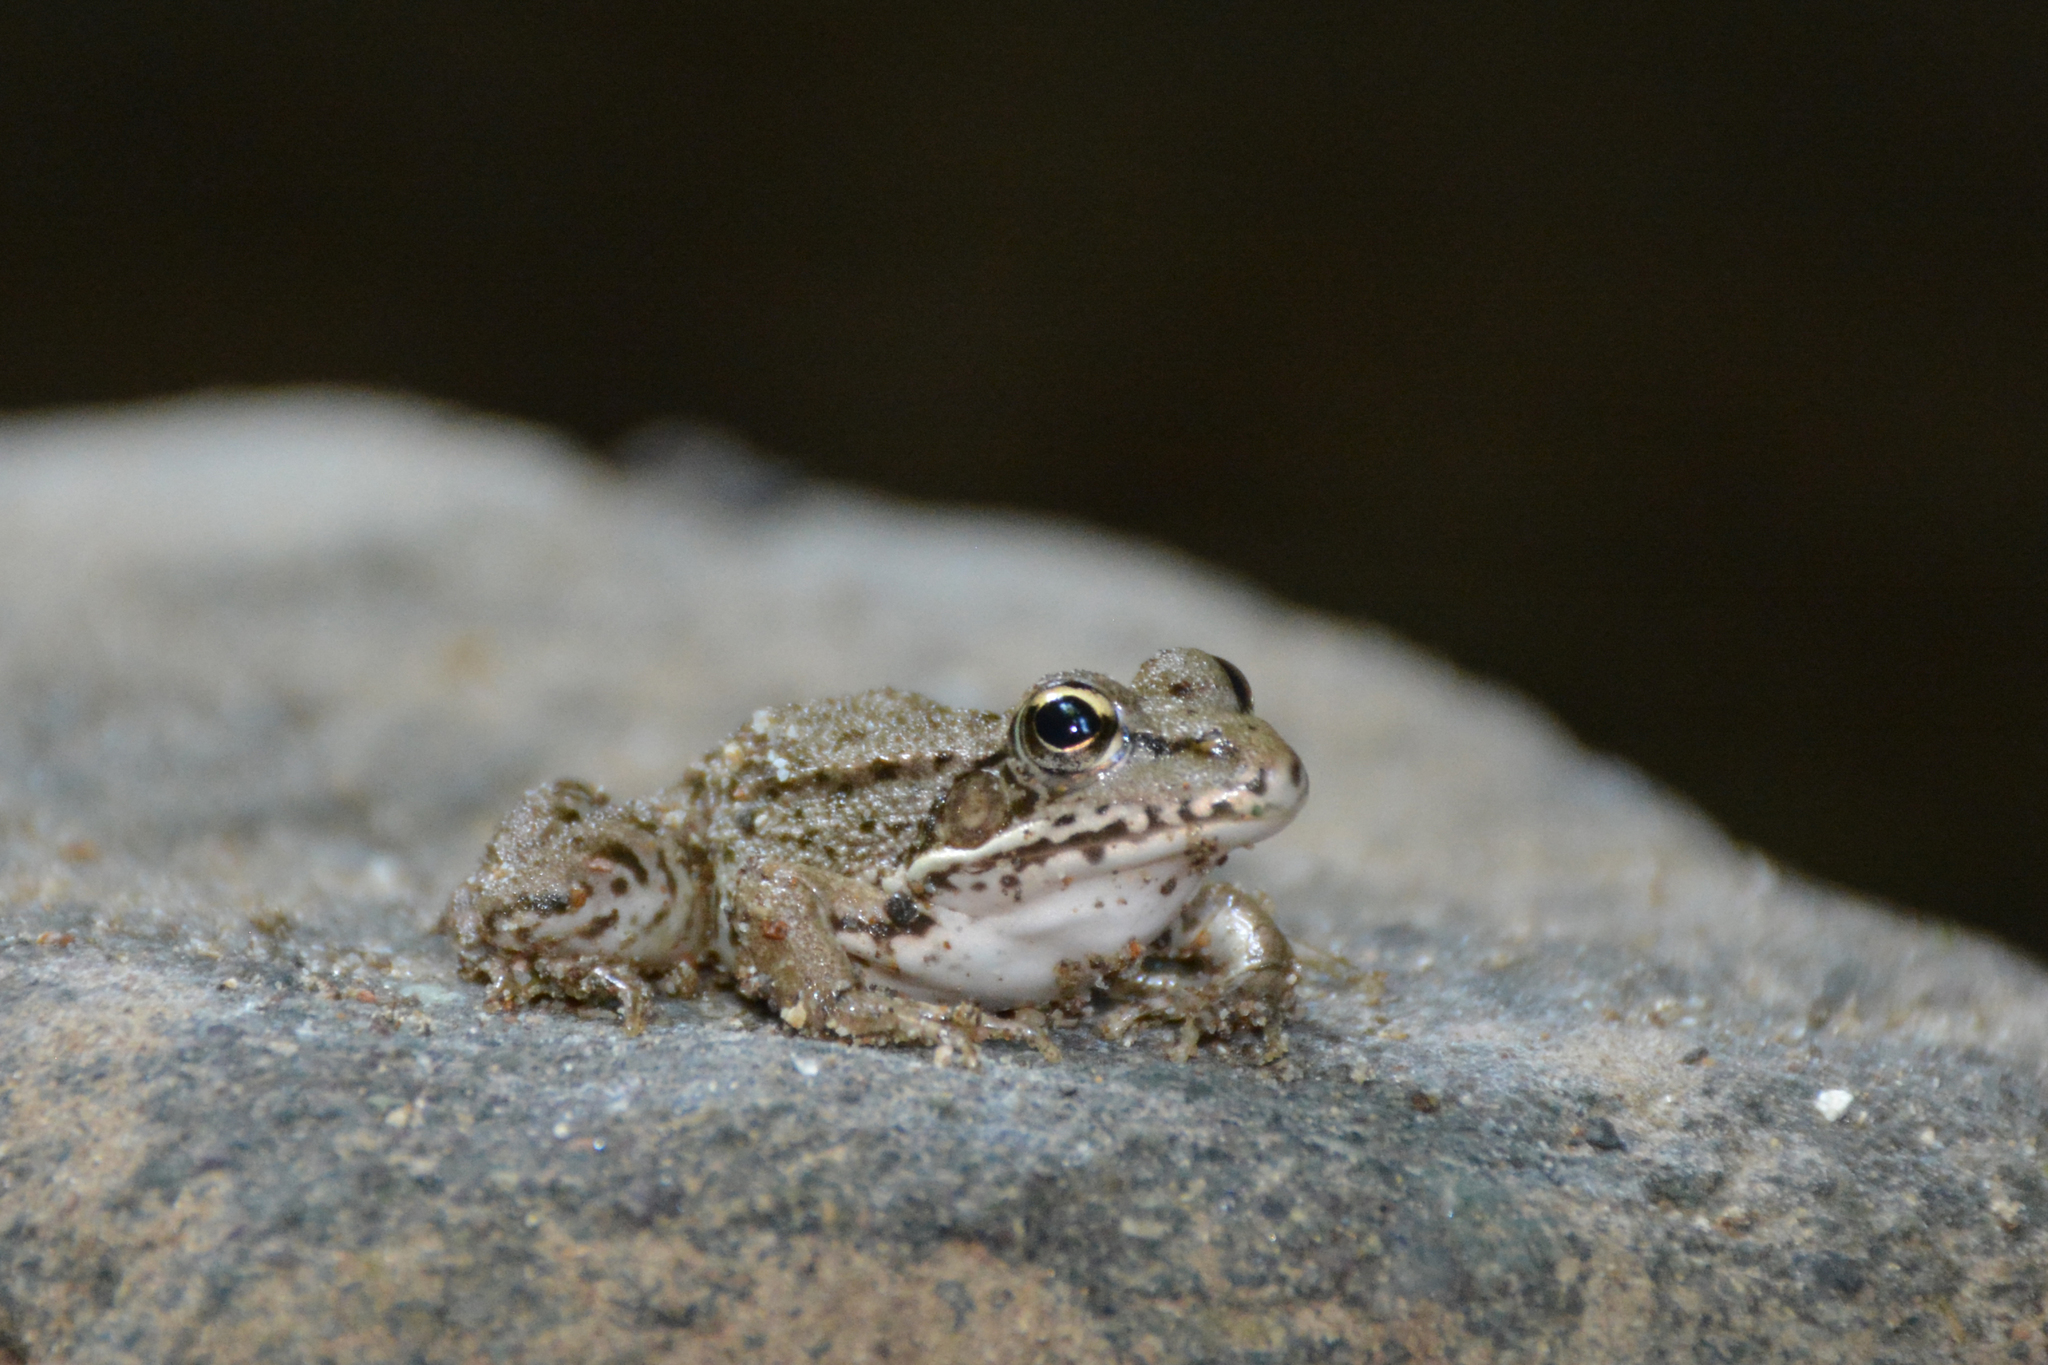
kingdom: Animalia
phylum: Chordata
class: Amphibia
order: Anura
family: Ranidae
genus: Pelophylax
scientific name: Pelophylax ridibundus
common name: Marsh frog
